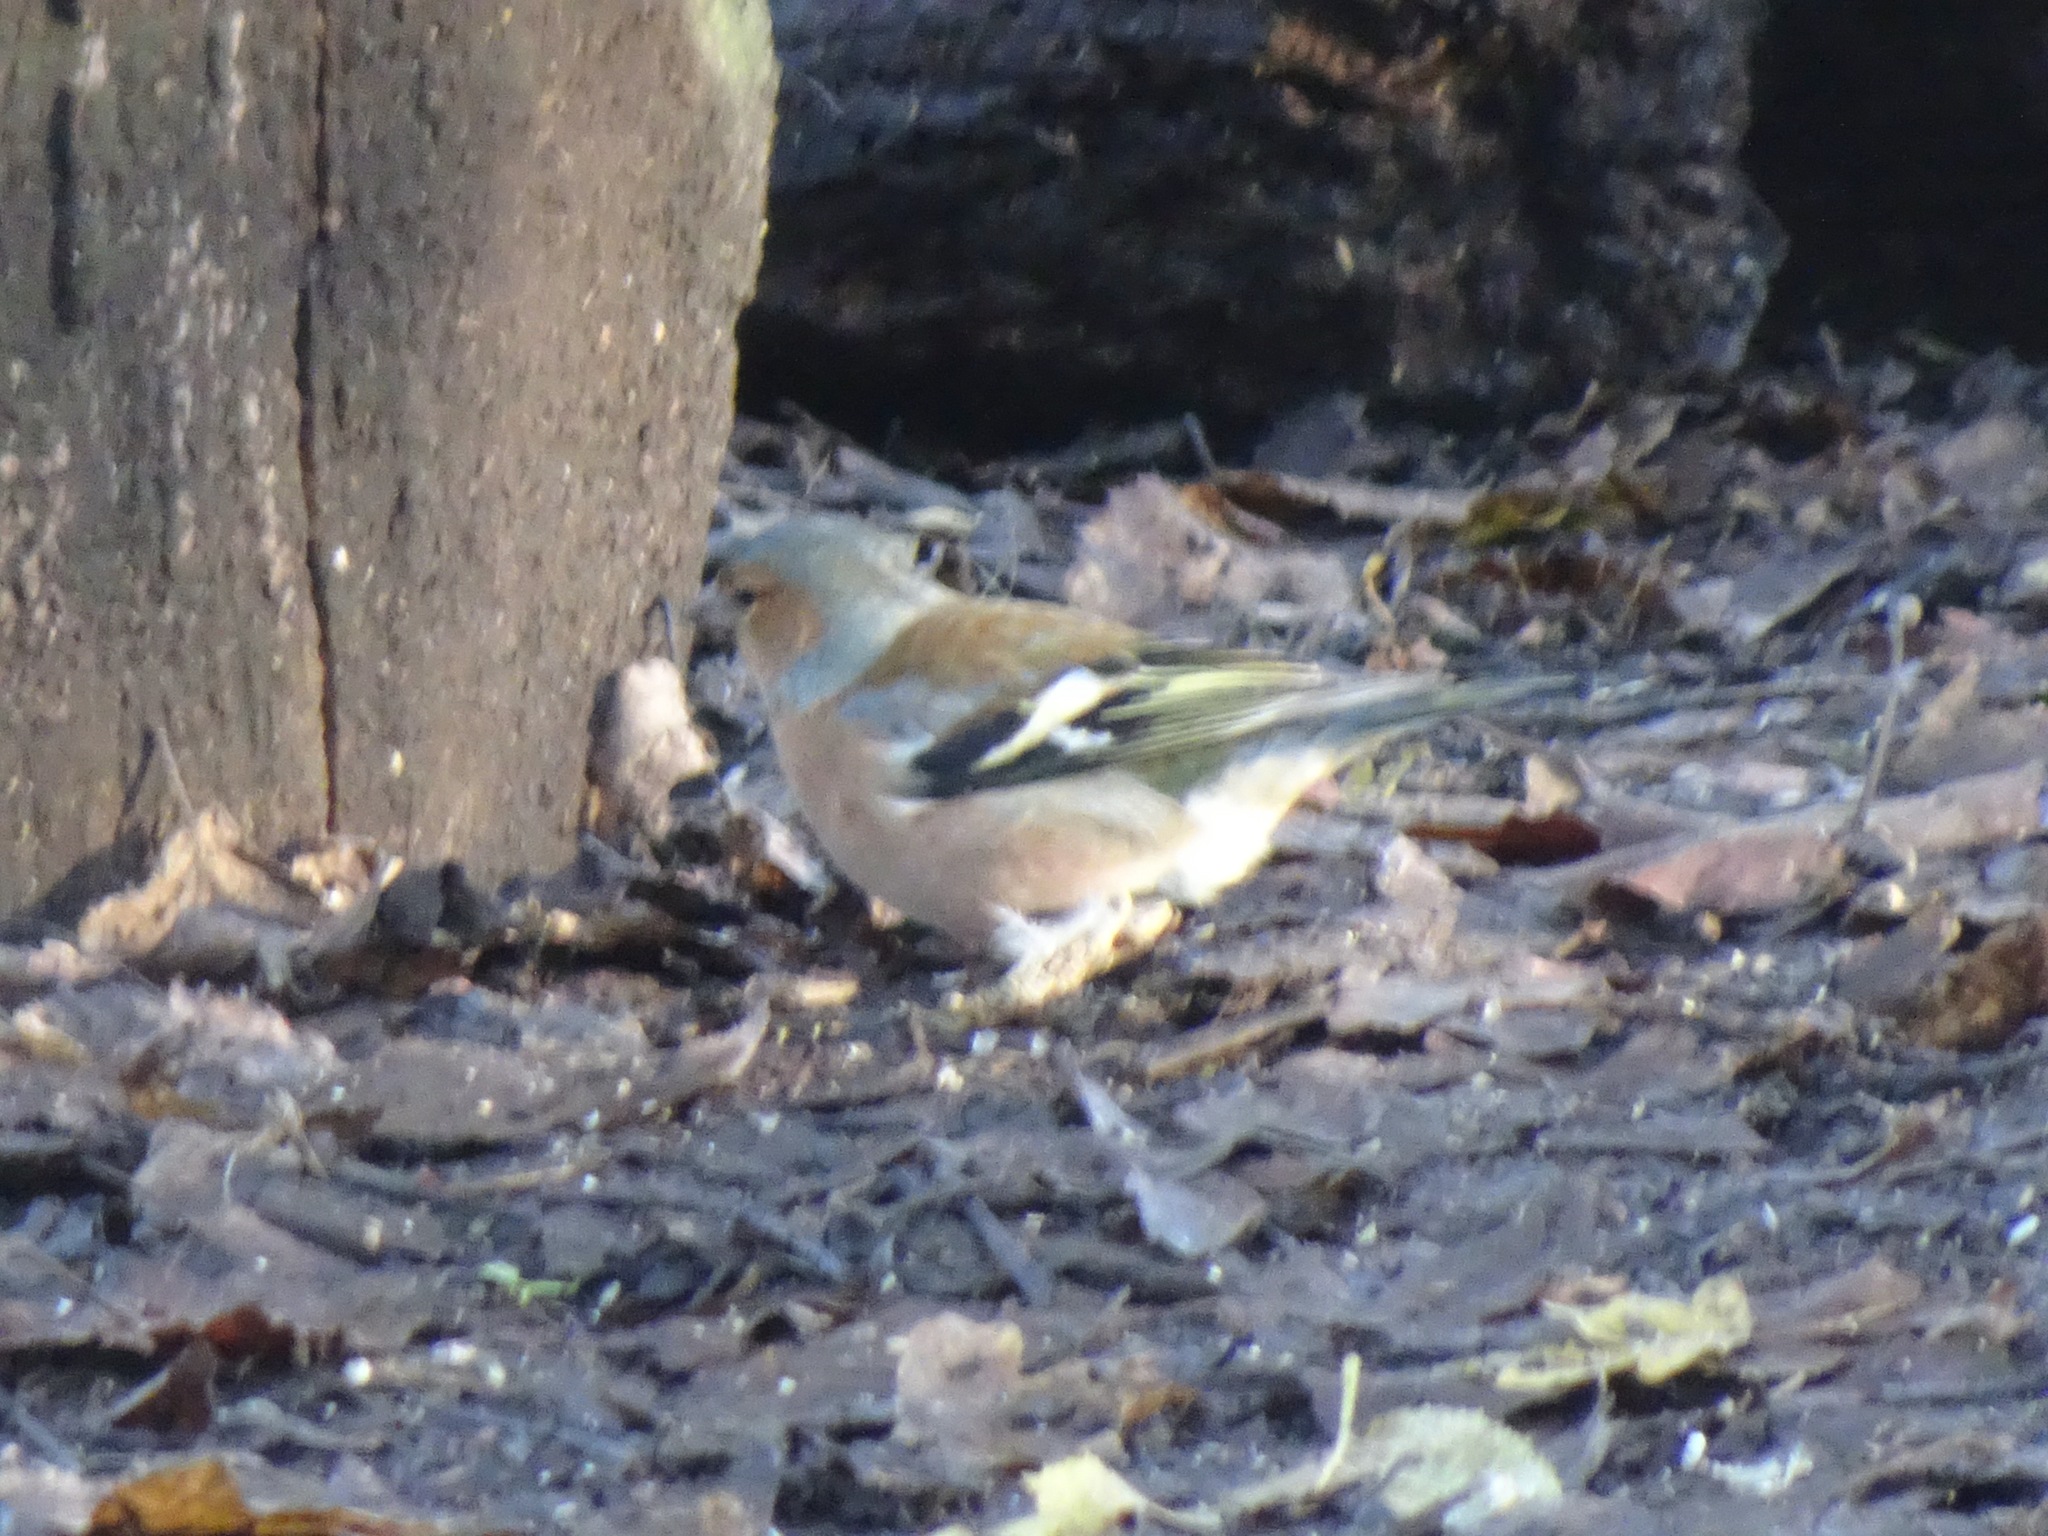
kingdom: Animalia
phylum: Chordata
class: Aves
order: Passeriformes
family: Fringillidae
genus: Fringilla
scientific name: Fringilla coelebs
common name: Common chaffinch
